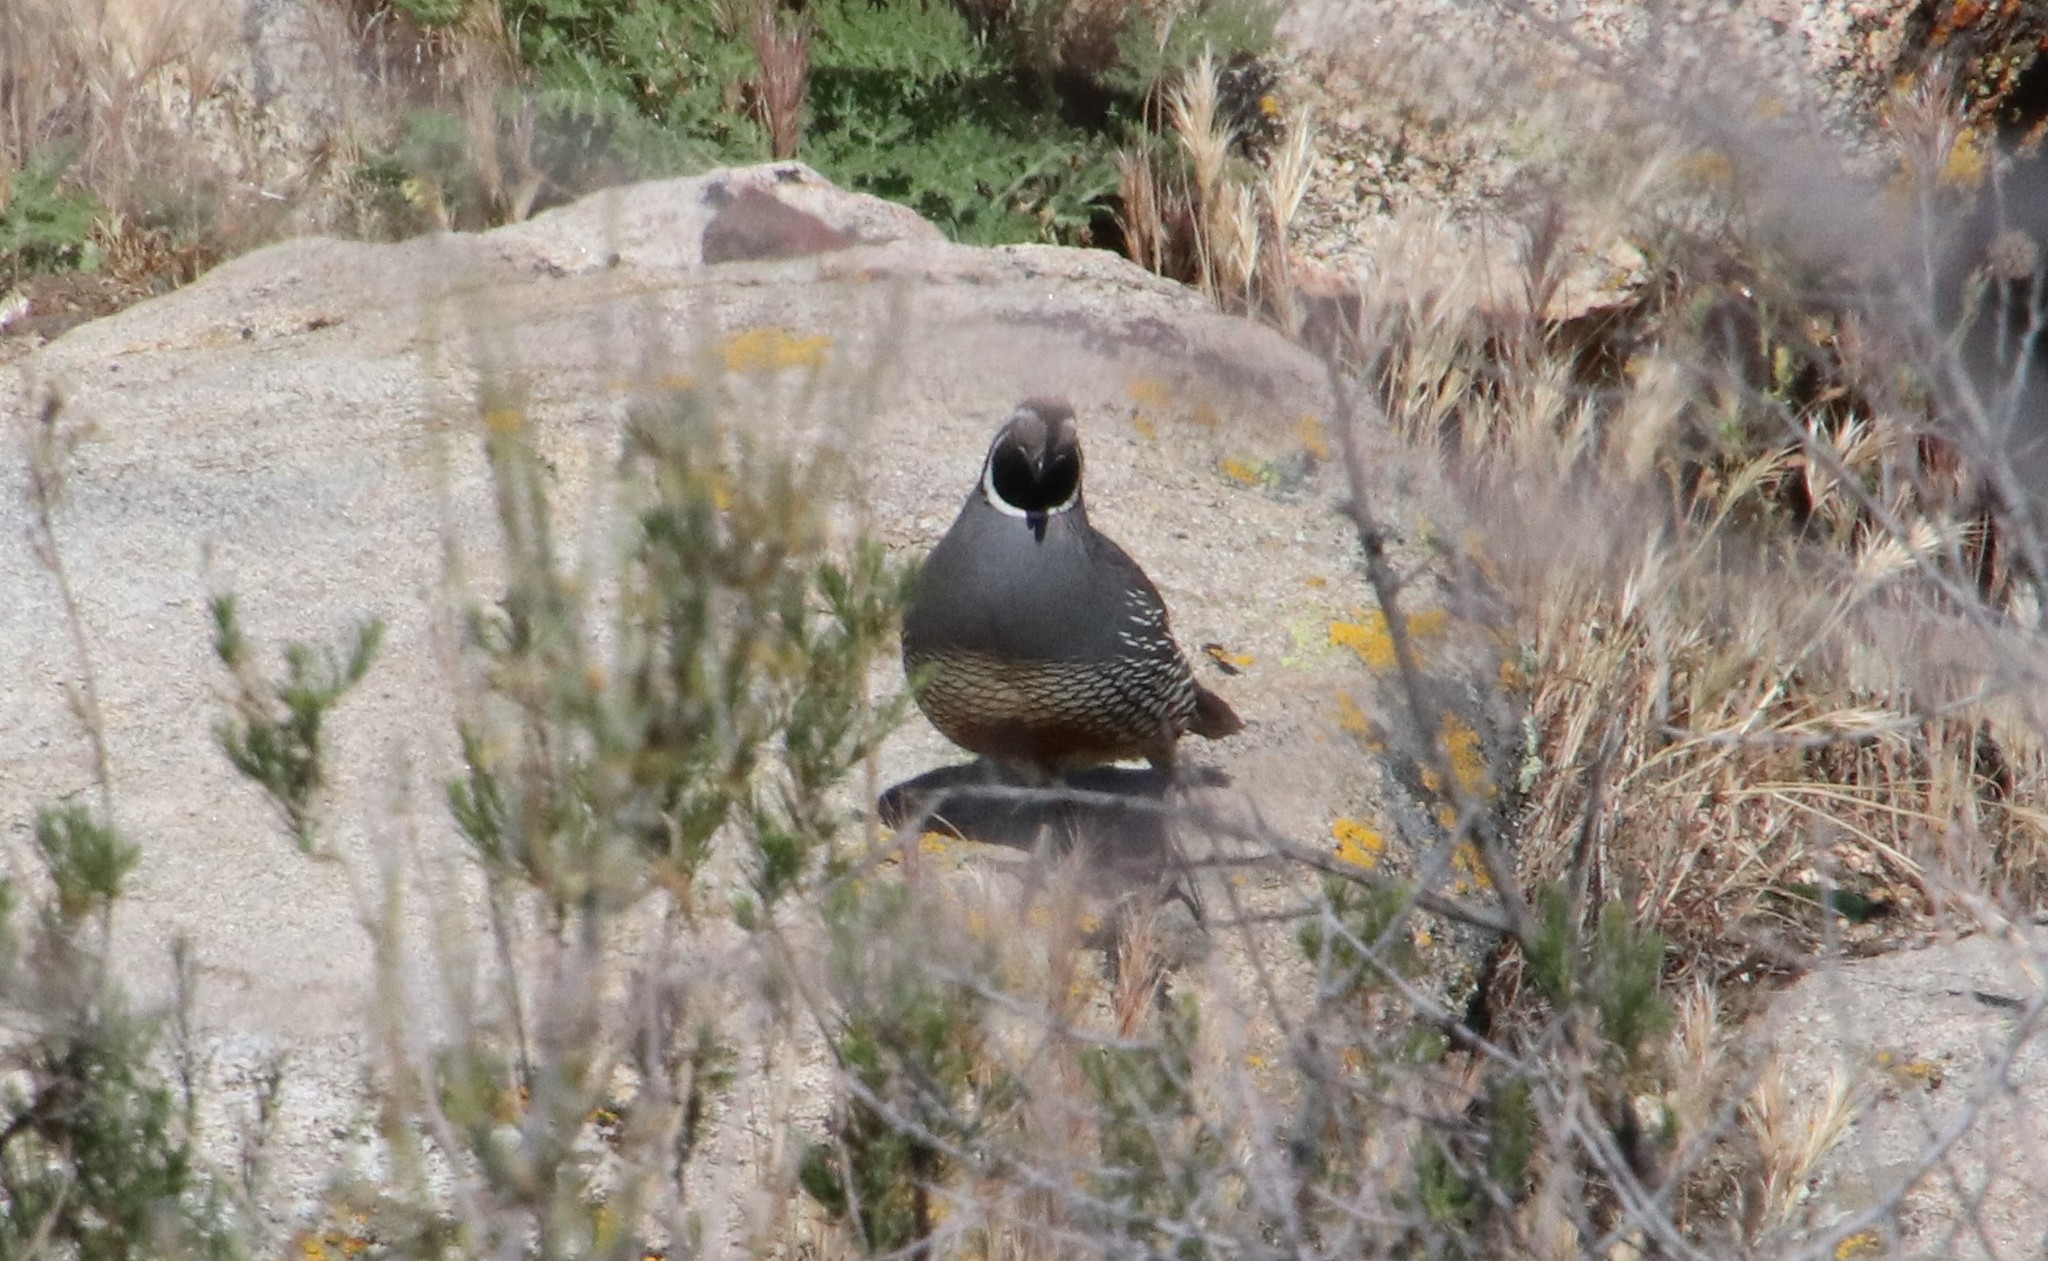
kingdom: Animalia
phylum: Chordata
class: Aves
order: Galliformes
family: Odontophoridae
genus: Callipepla
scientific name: Callipepla californica
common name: California quail
